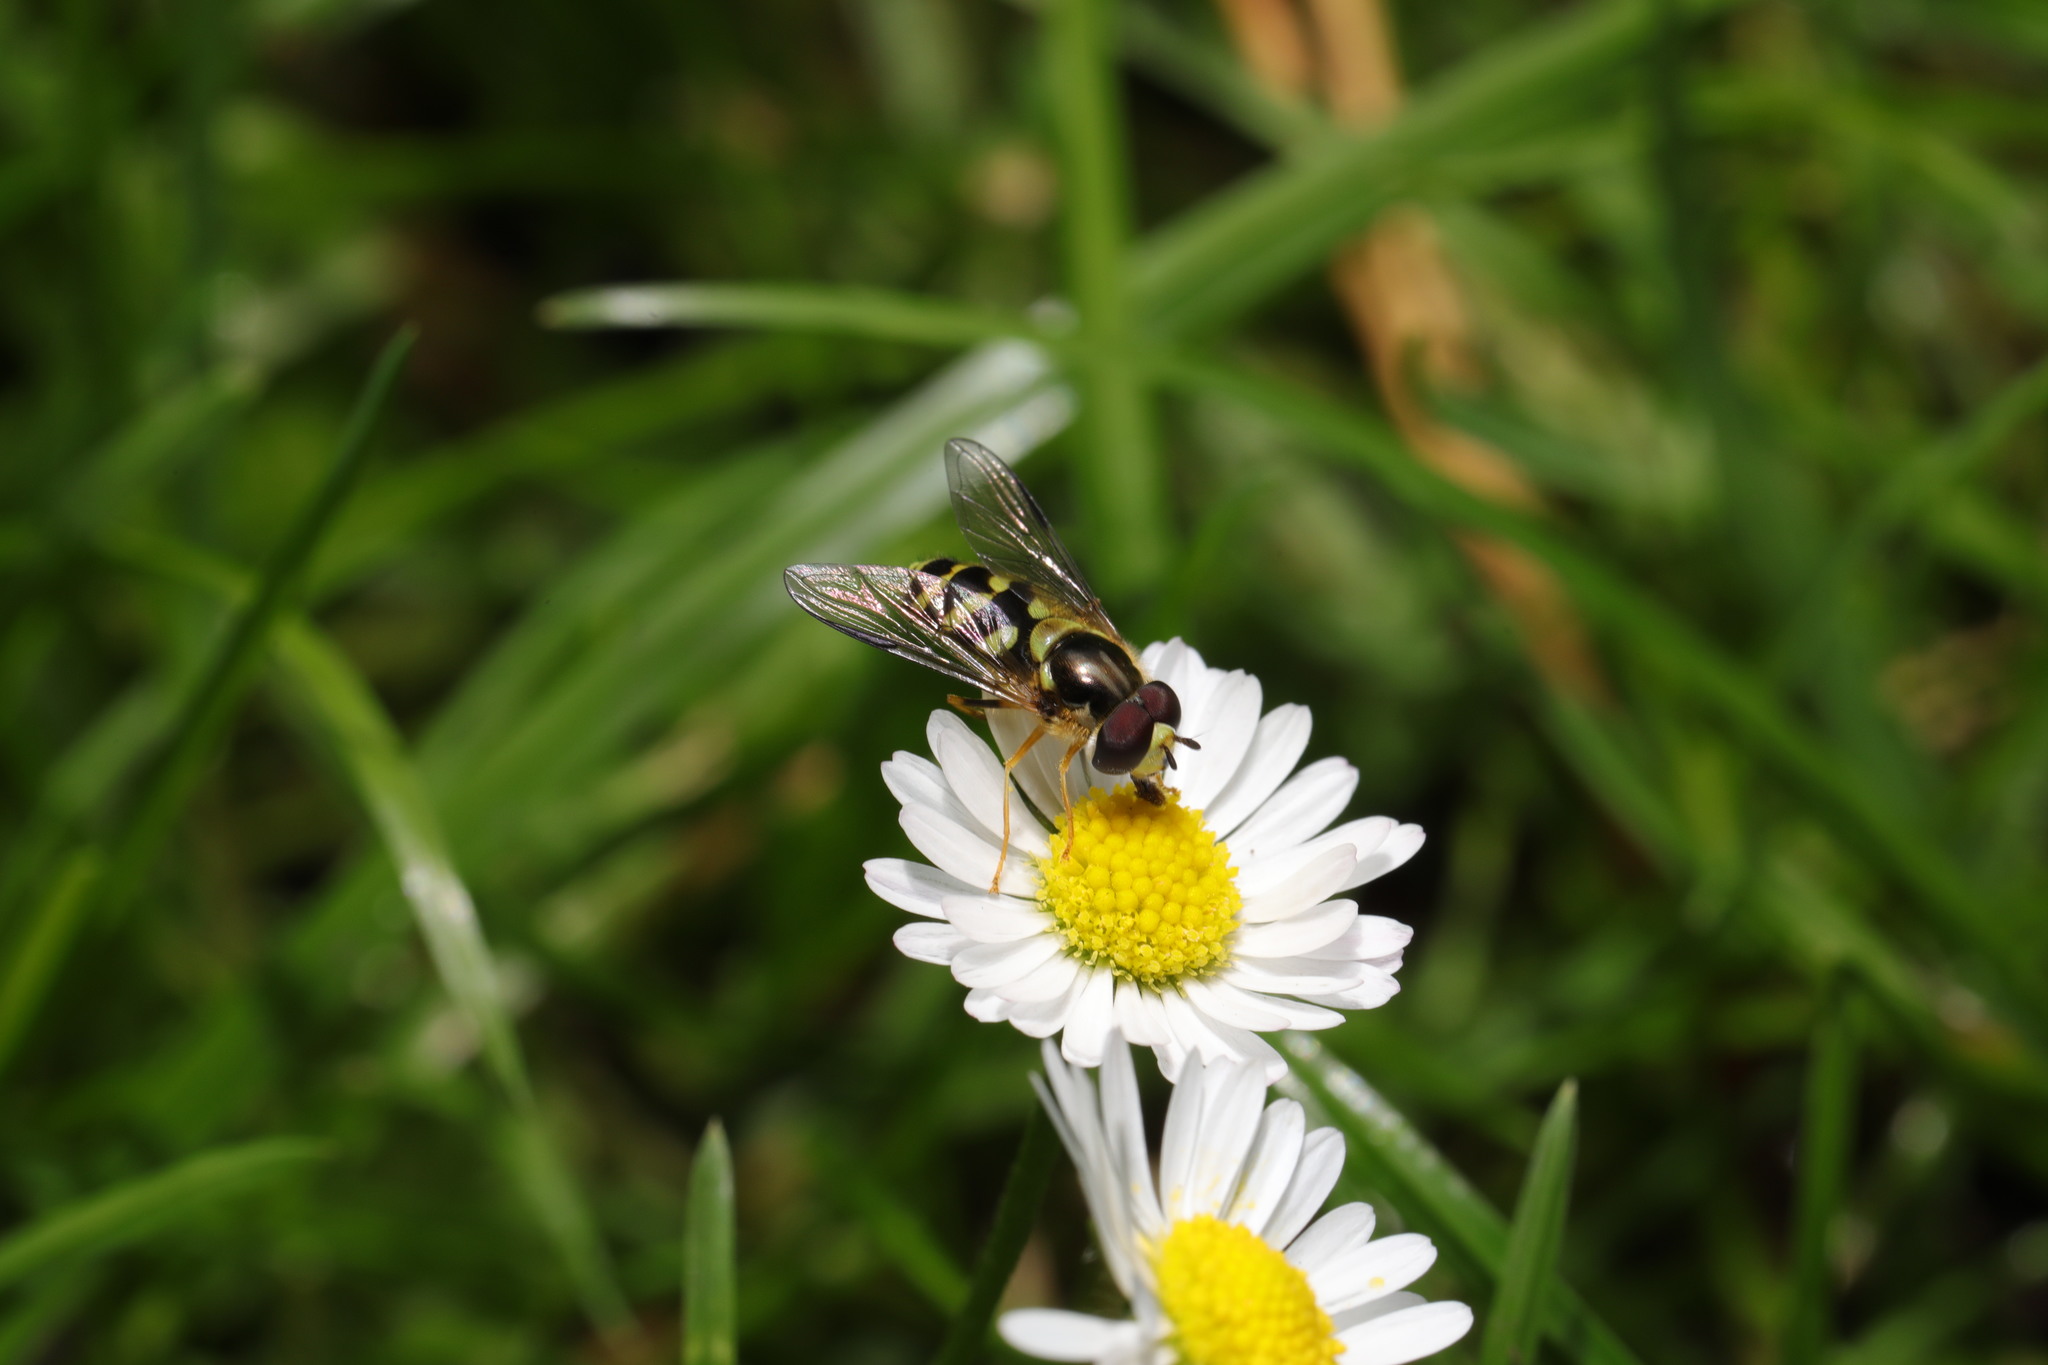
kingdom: Animalia
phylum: Arthropoda
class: Insecta
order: Diptera
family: Syrphidae
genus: Dasysyrphus
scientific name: Dasysyrphus albostriatus
